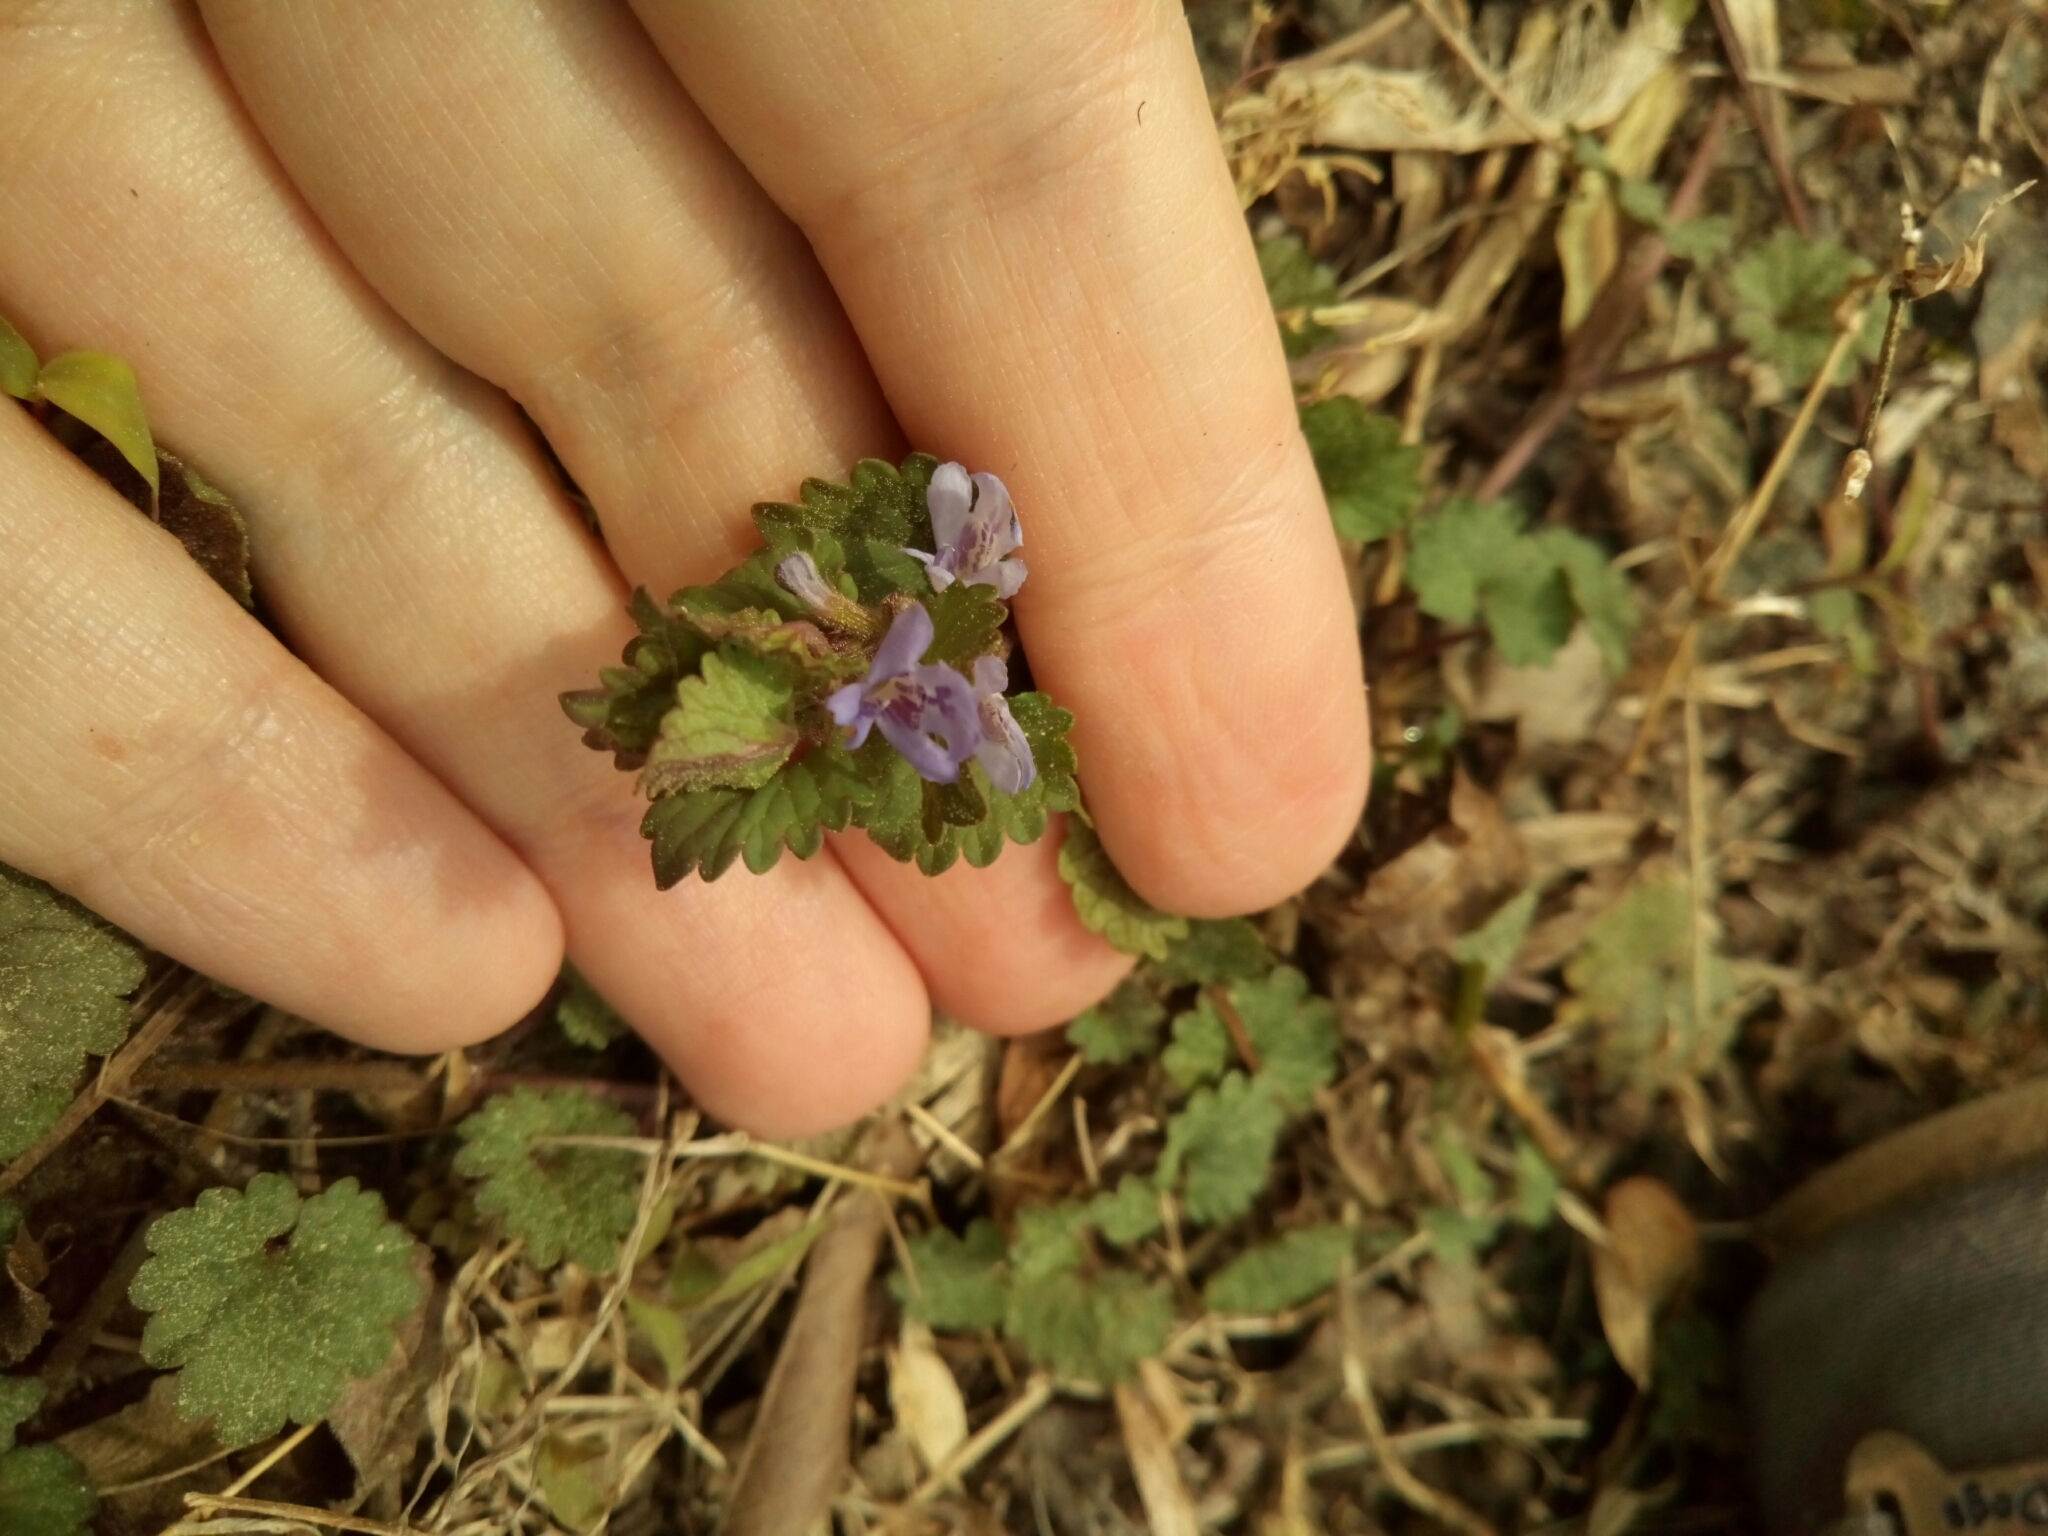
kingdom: Plantae
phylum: Tracheophyta
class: Magnoliopsida
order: Lamiales
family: Lamiaceae
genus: Glechoma
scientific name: Glechoma hederacea
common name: Ground ivy
